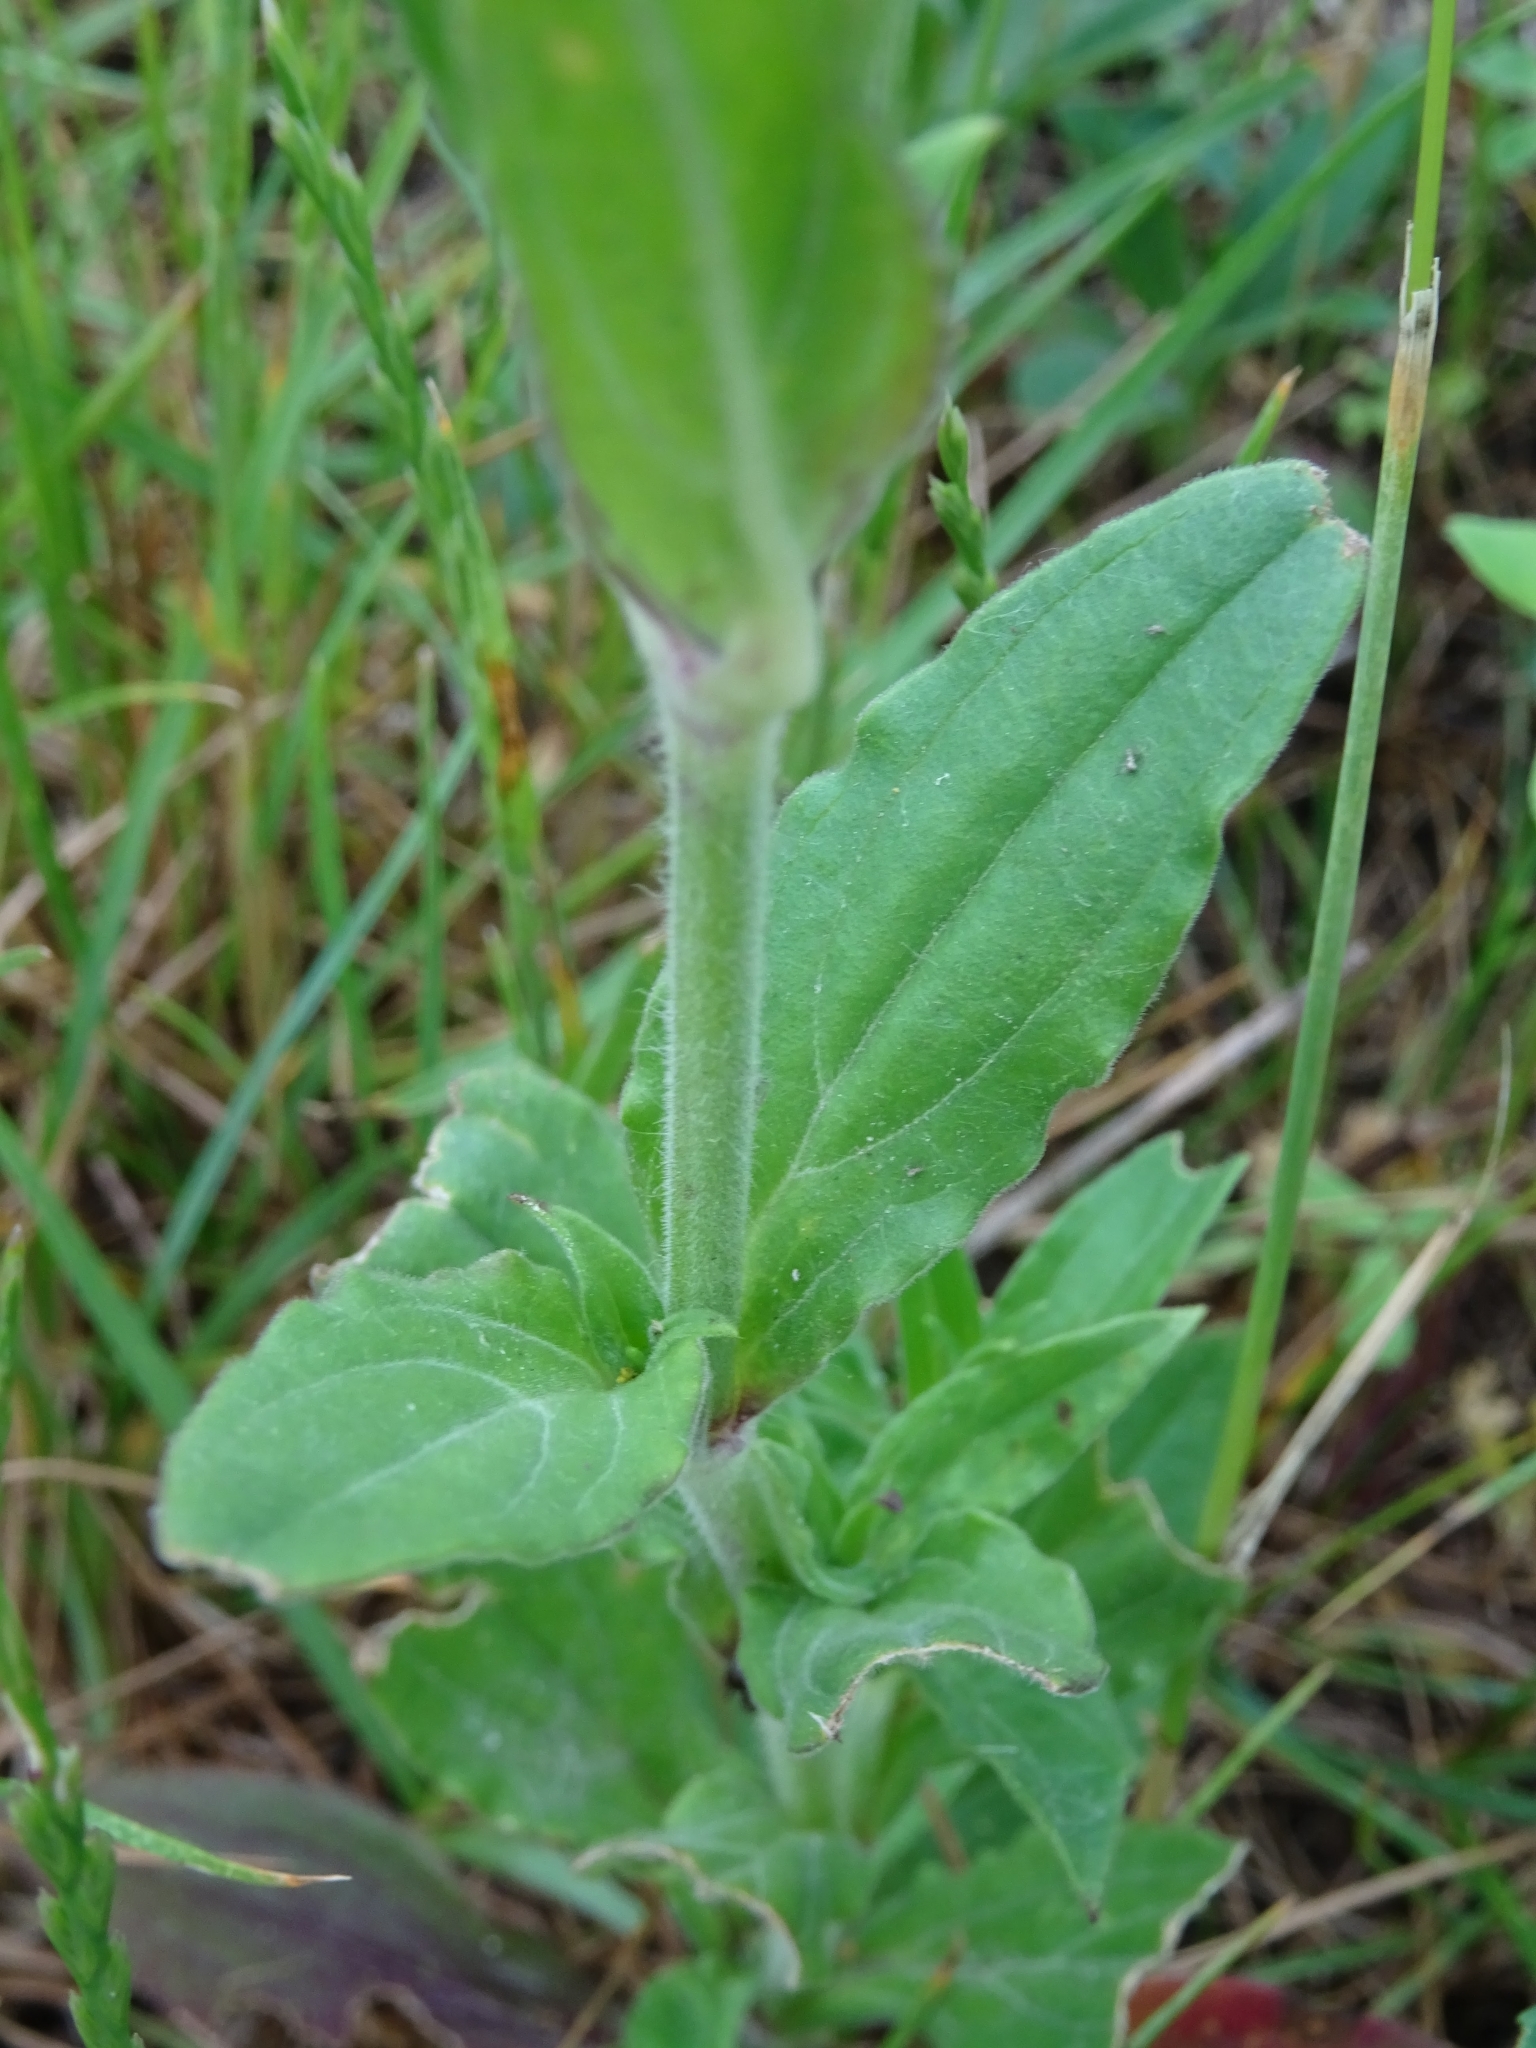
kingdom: Plantae
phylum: Tracheophyta
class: Magnoliopsida
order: Caryophyllales
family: Caryophyllaceae
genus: Silene
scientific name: Silene latifolia
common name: White campion
